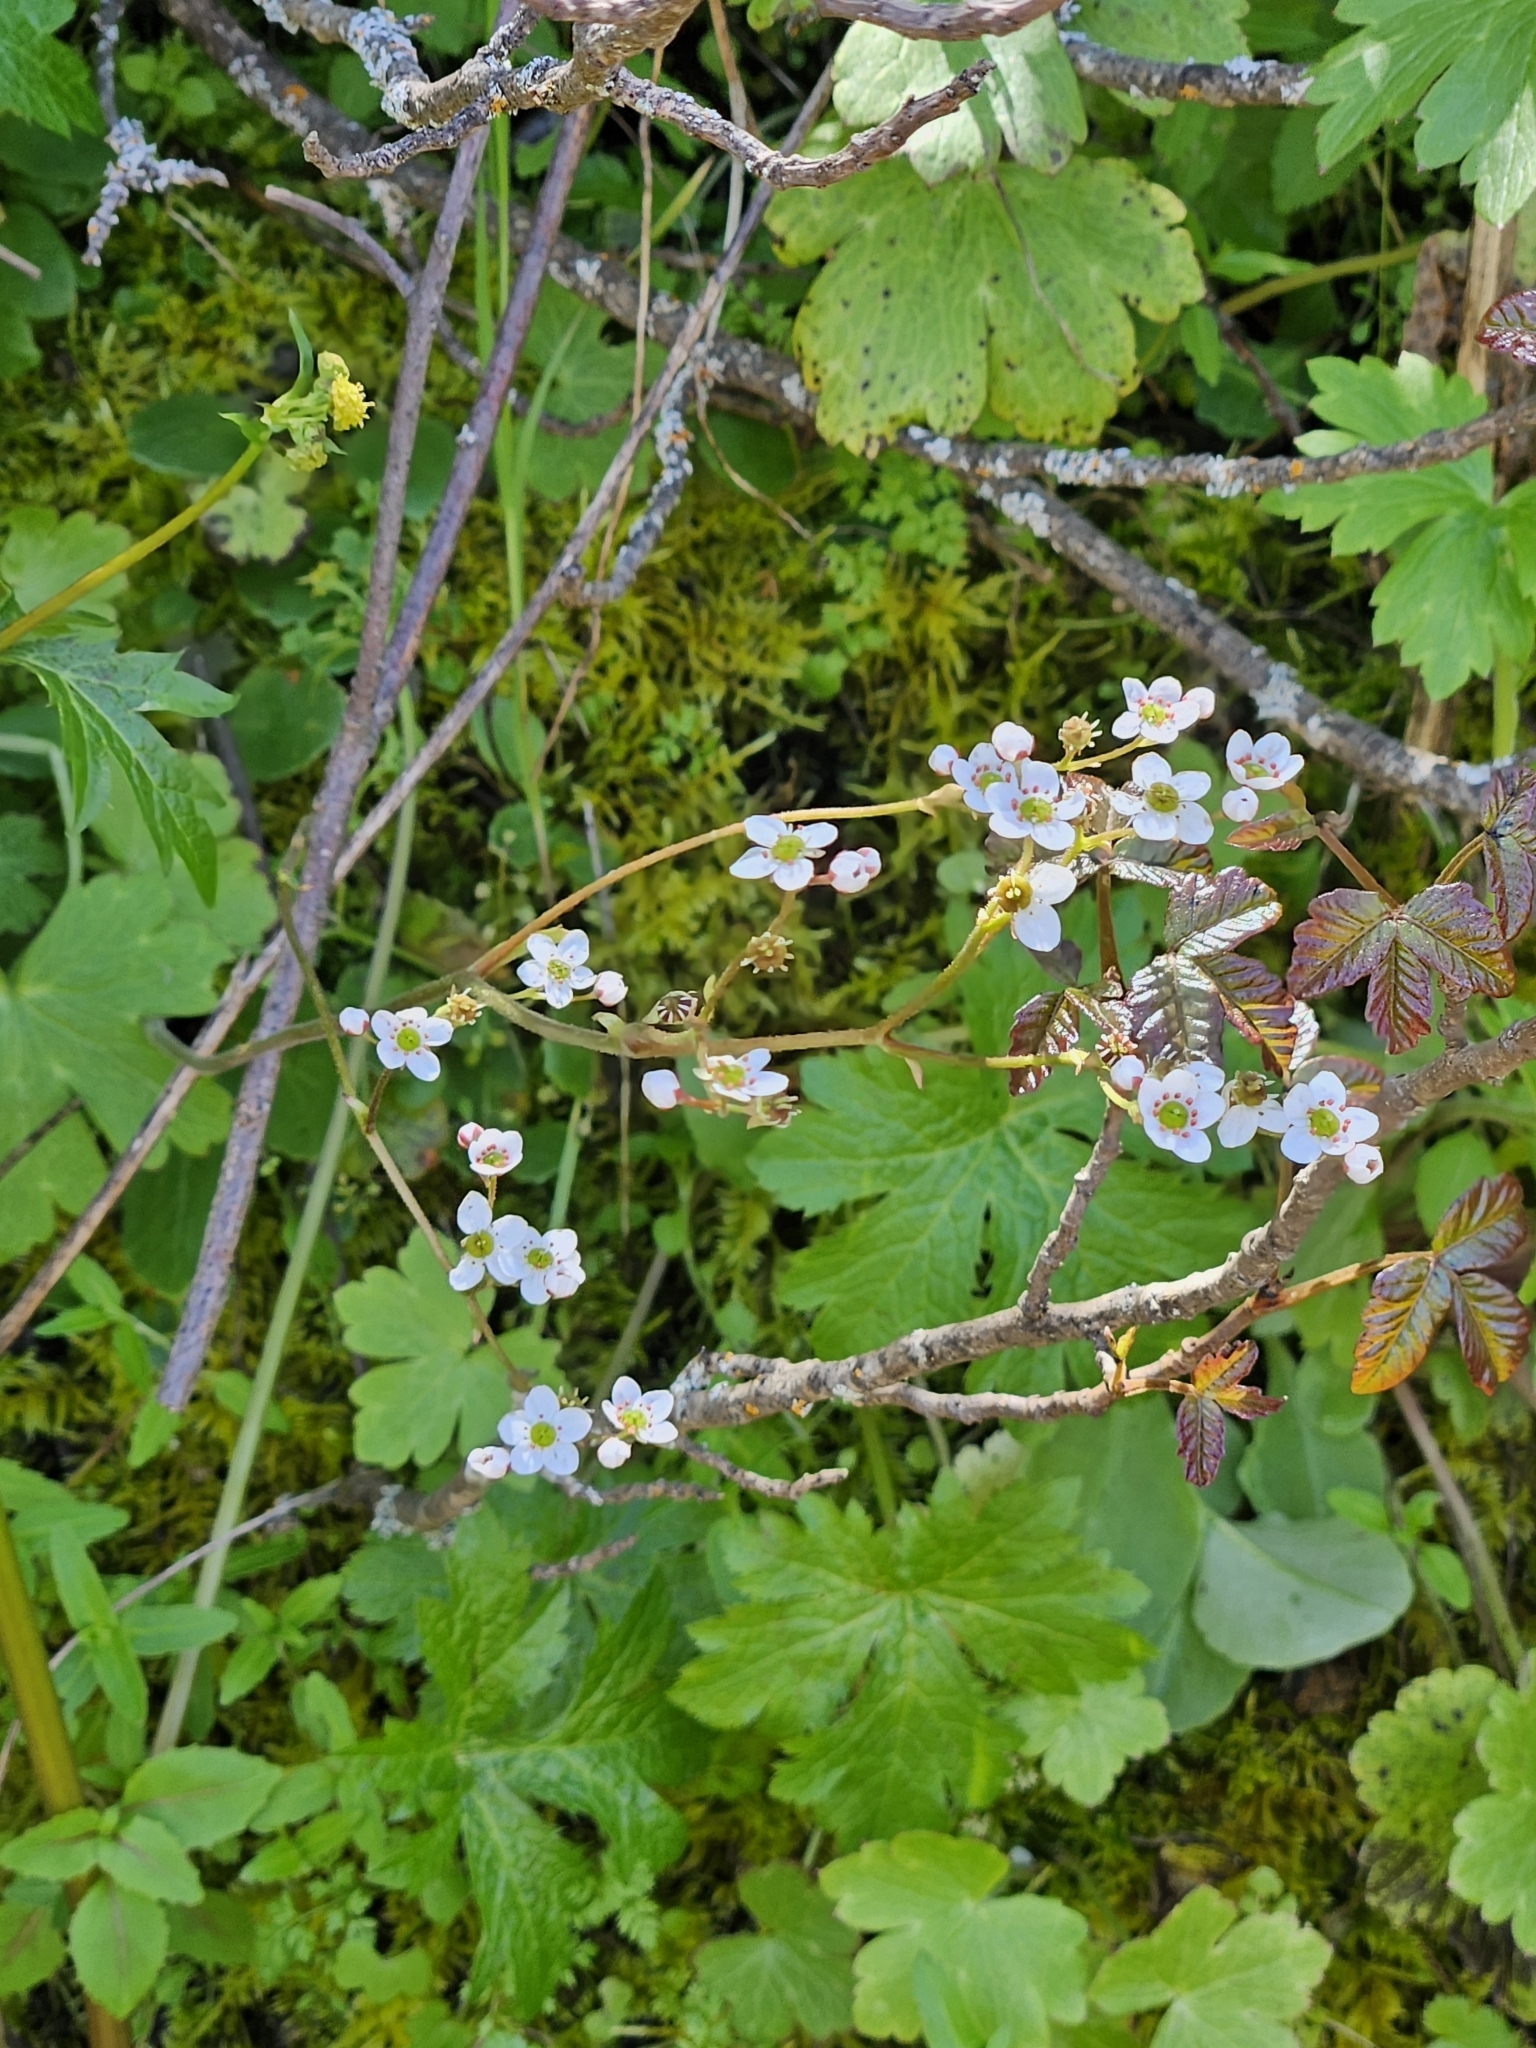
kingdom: Plantae
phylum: Tracheophyta
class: Magnoliopsida
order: Saxifragales
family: Saxifragaceae
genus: Micranthes
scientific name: Micranthes californica
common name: California saxifrage
